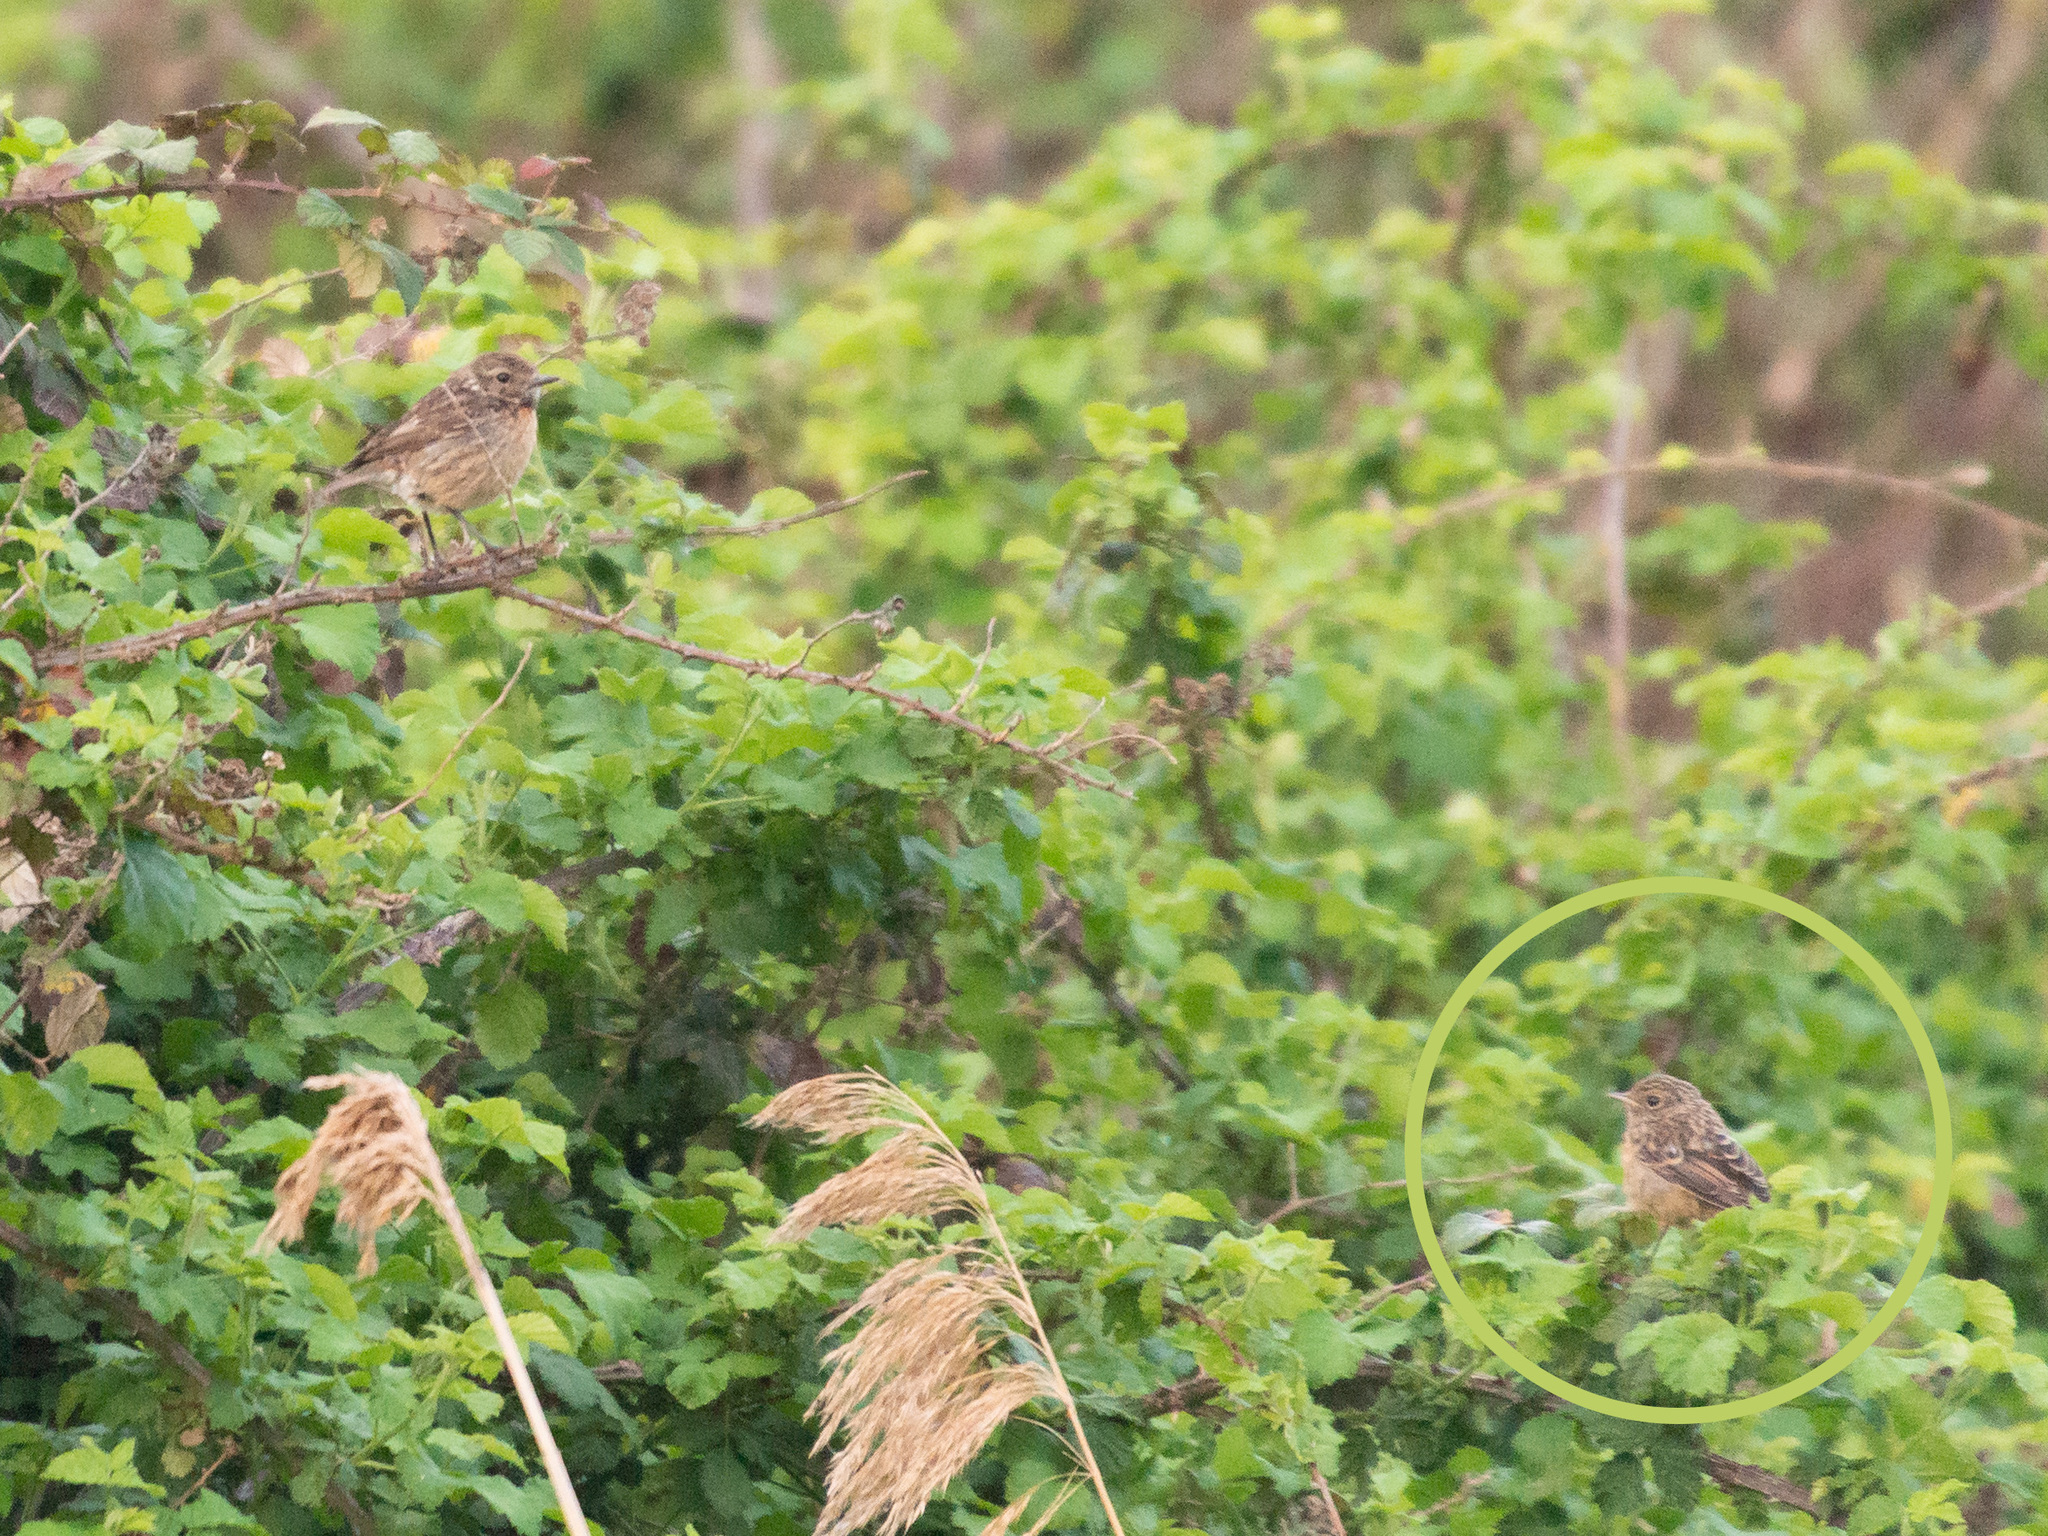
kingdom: Animalia
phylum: Chordata
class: Aves
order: Passeriformes
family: Muscicapidae
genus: Saxicola
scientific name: Saxicola rubicola
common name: European stonechat
